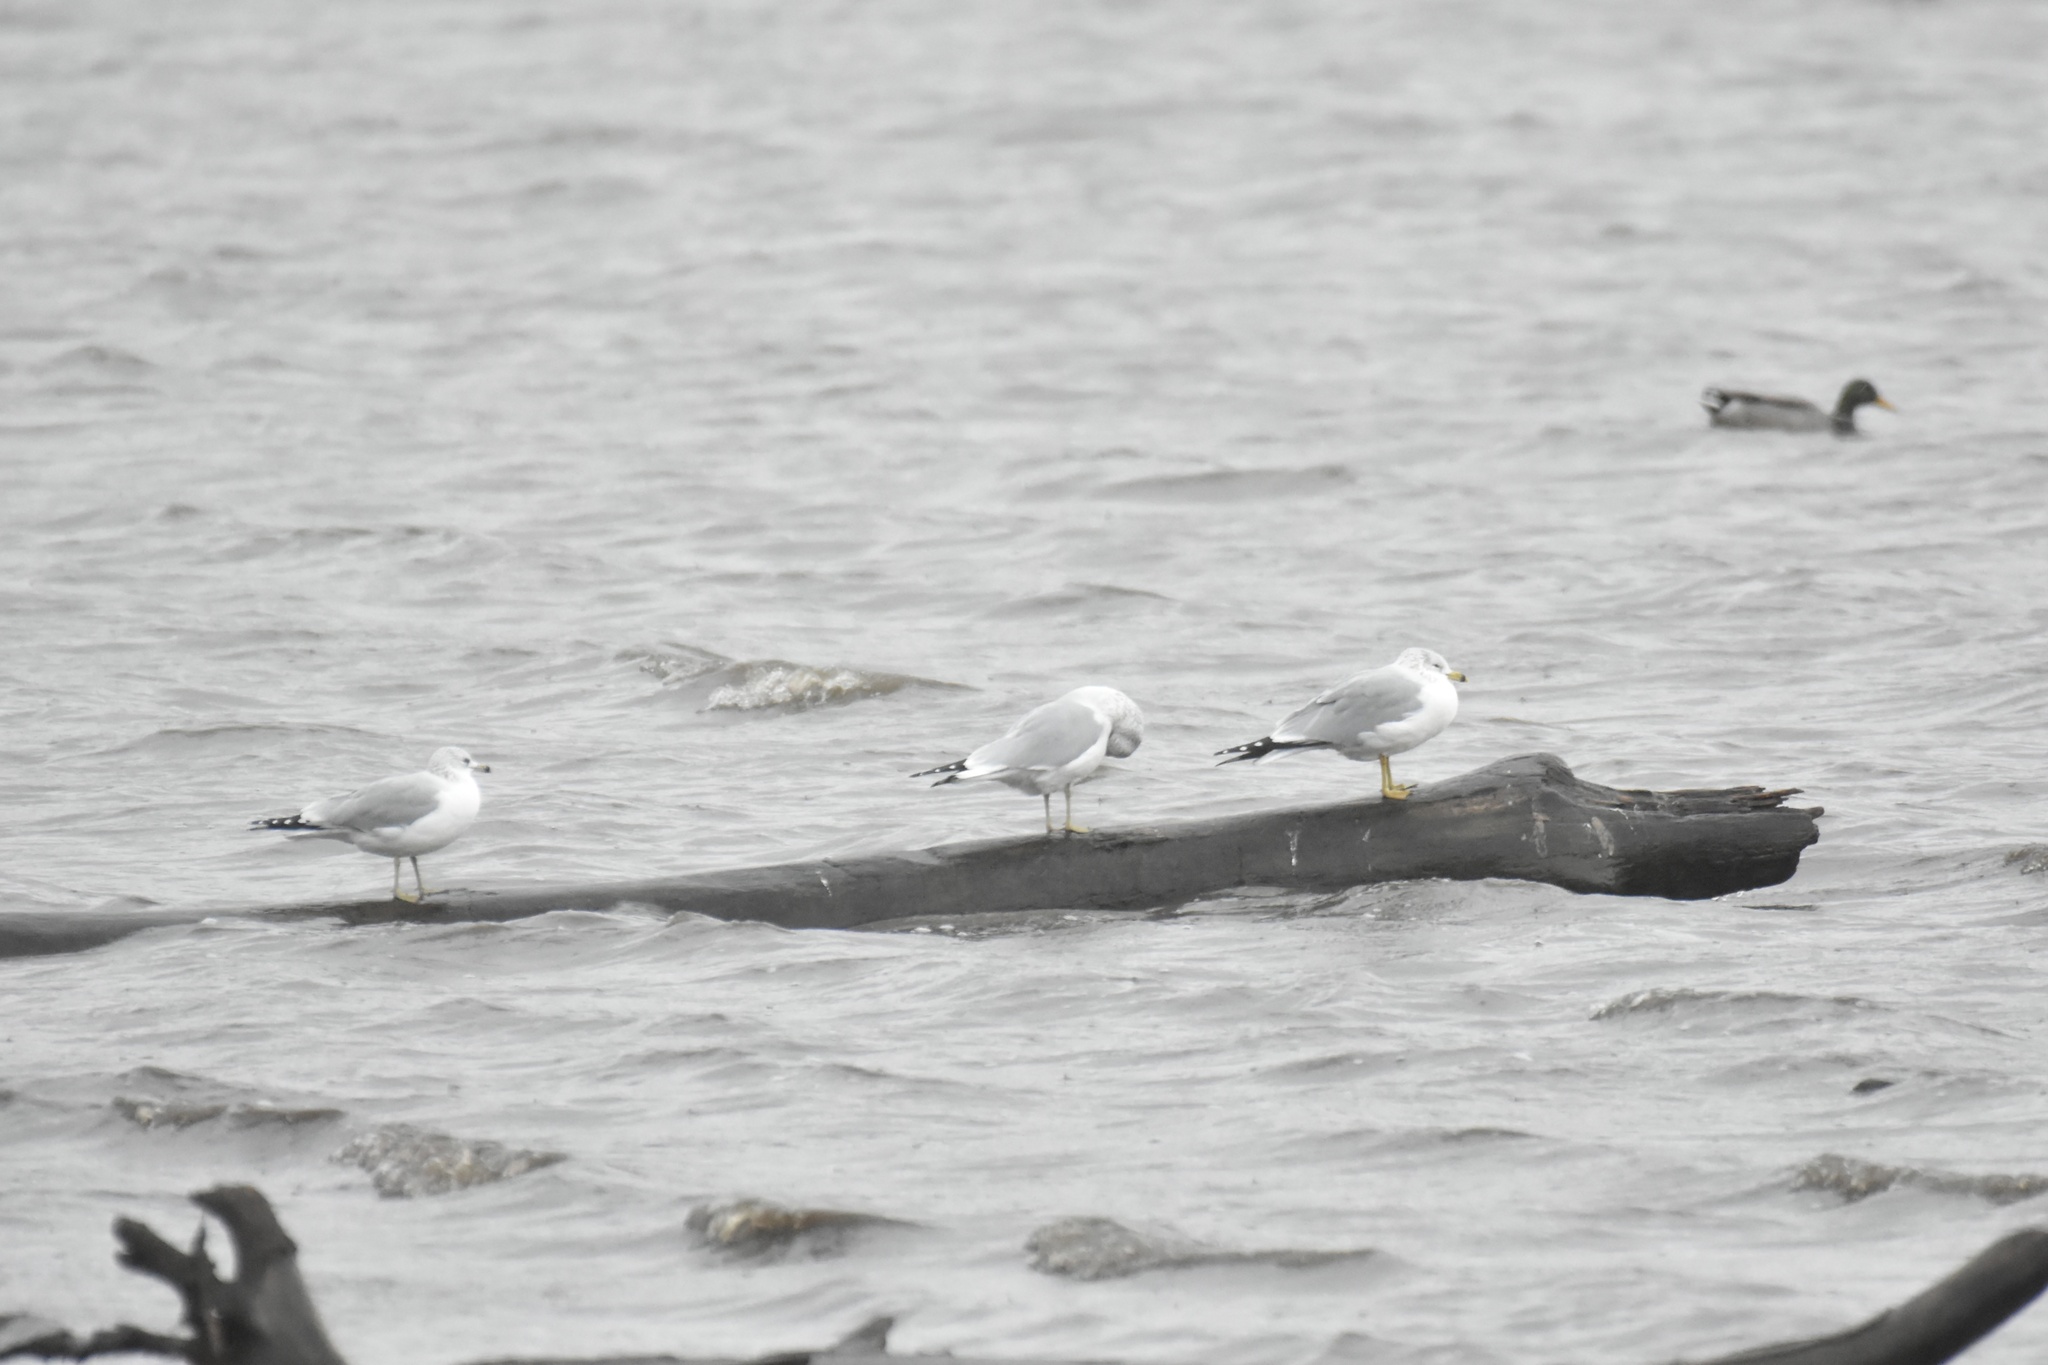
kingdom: Animalia
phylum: Chordata
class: Aves
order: Charadriiformes
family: Laridae
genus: Larus
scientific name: Larus delawarensis
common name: Ring-billed gull
